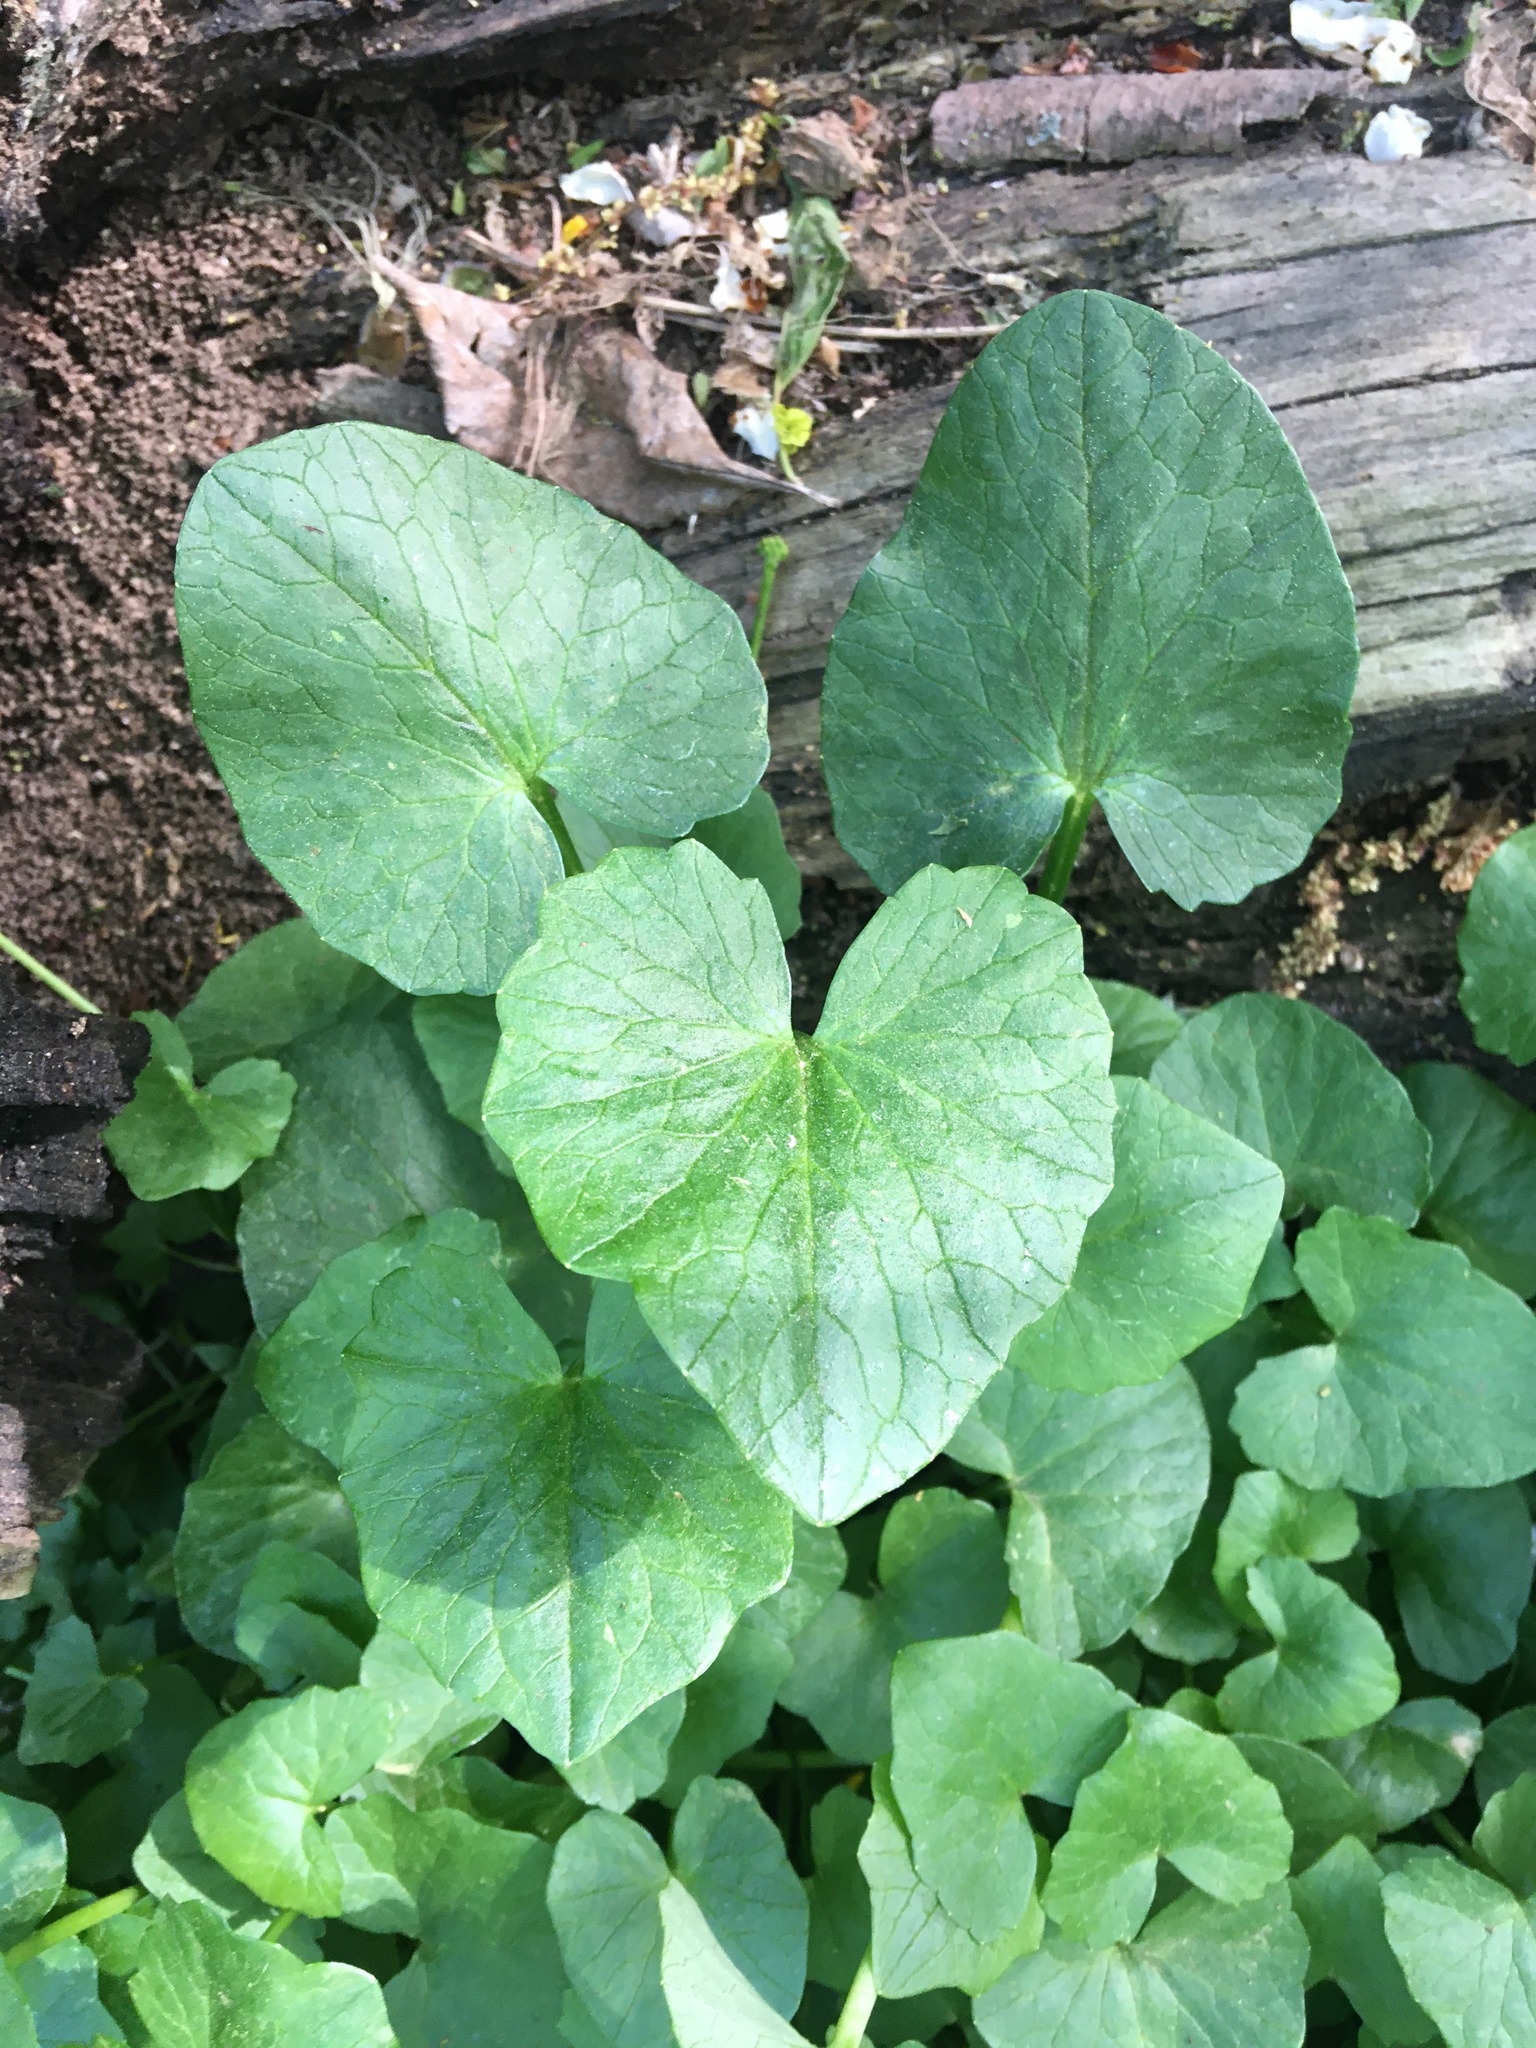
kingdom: Plantae
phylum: Tracheophyta
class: Magnoliopsida
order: Ranunculales
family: Ranunculaceae
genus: Ficaria
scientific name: Ficaria verna
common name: Lesser celandine
